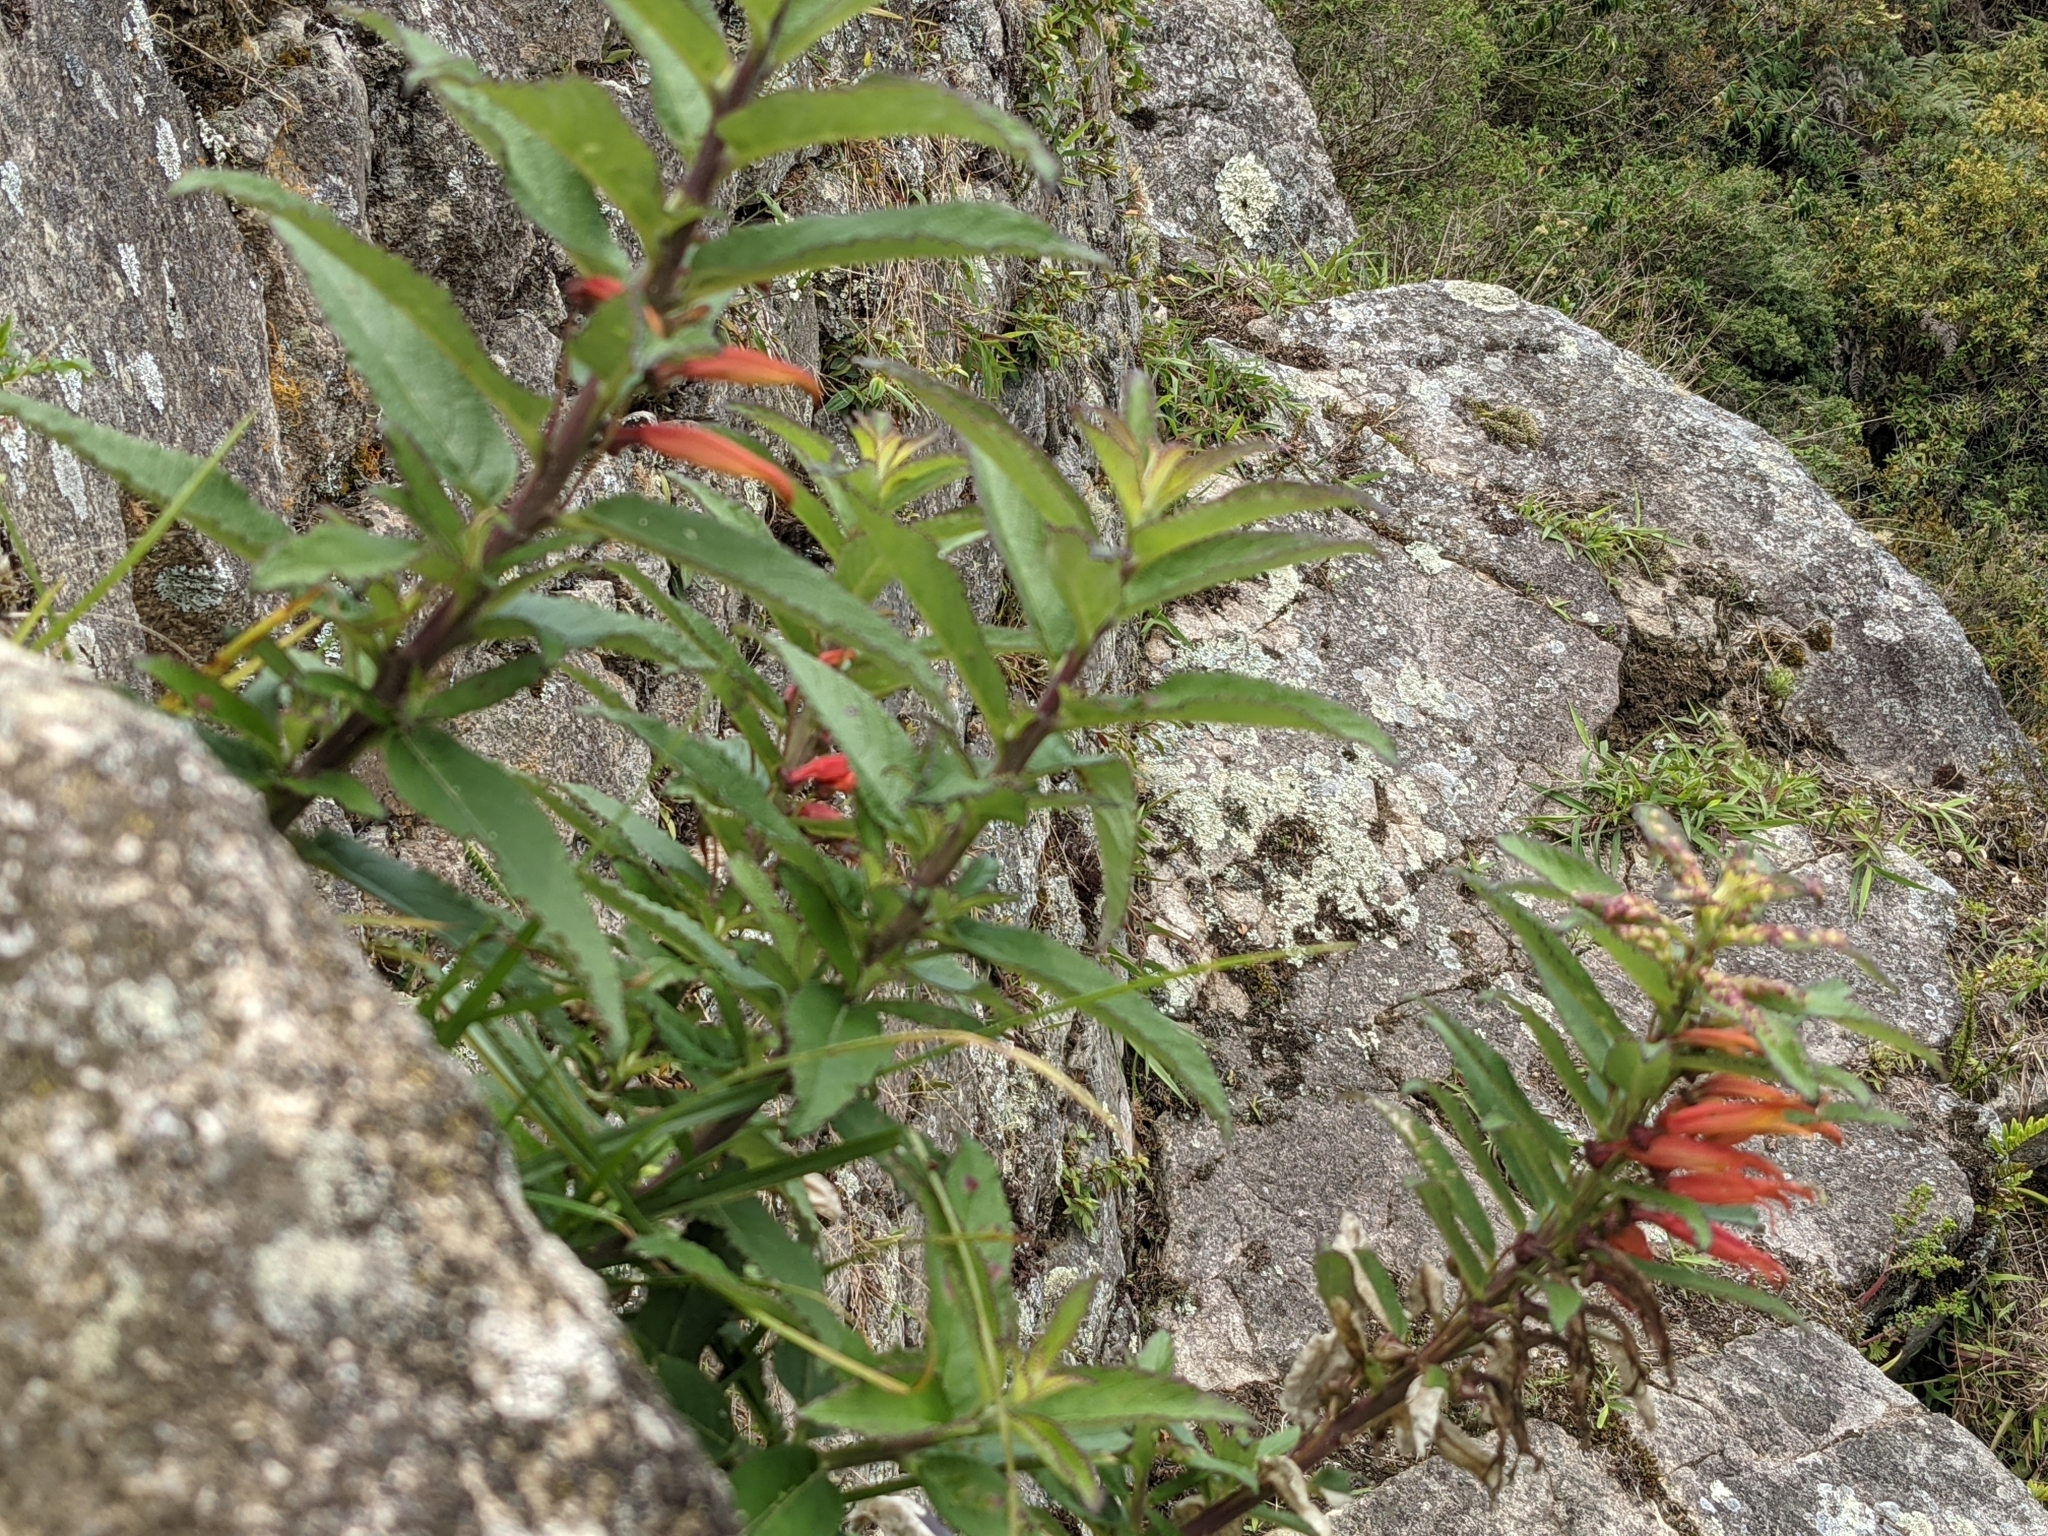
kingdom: Plantae
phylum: Tracheophyta
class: Magnoliopsida
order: Asterales
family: Campanulaceae
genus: Siphocampylus
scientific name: Siphocampylus krauseanus
